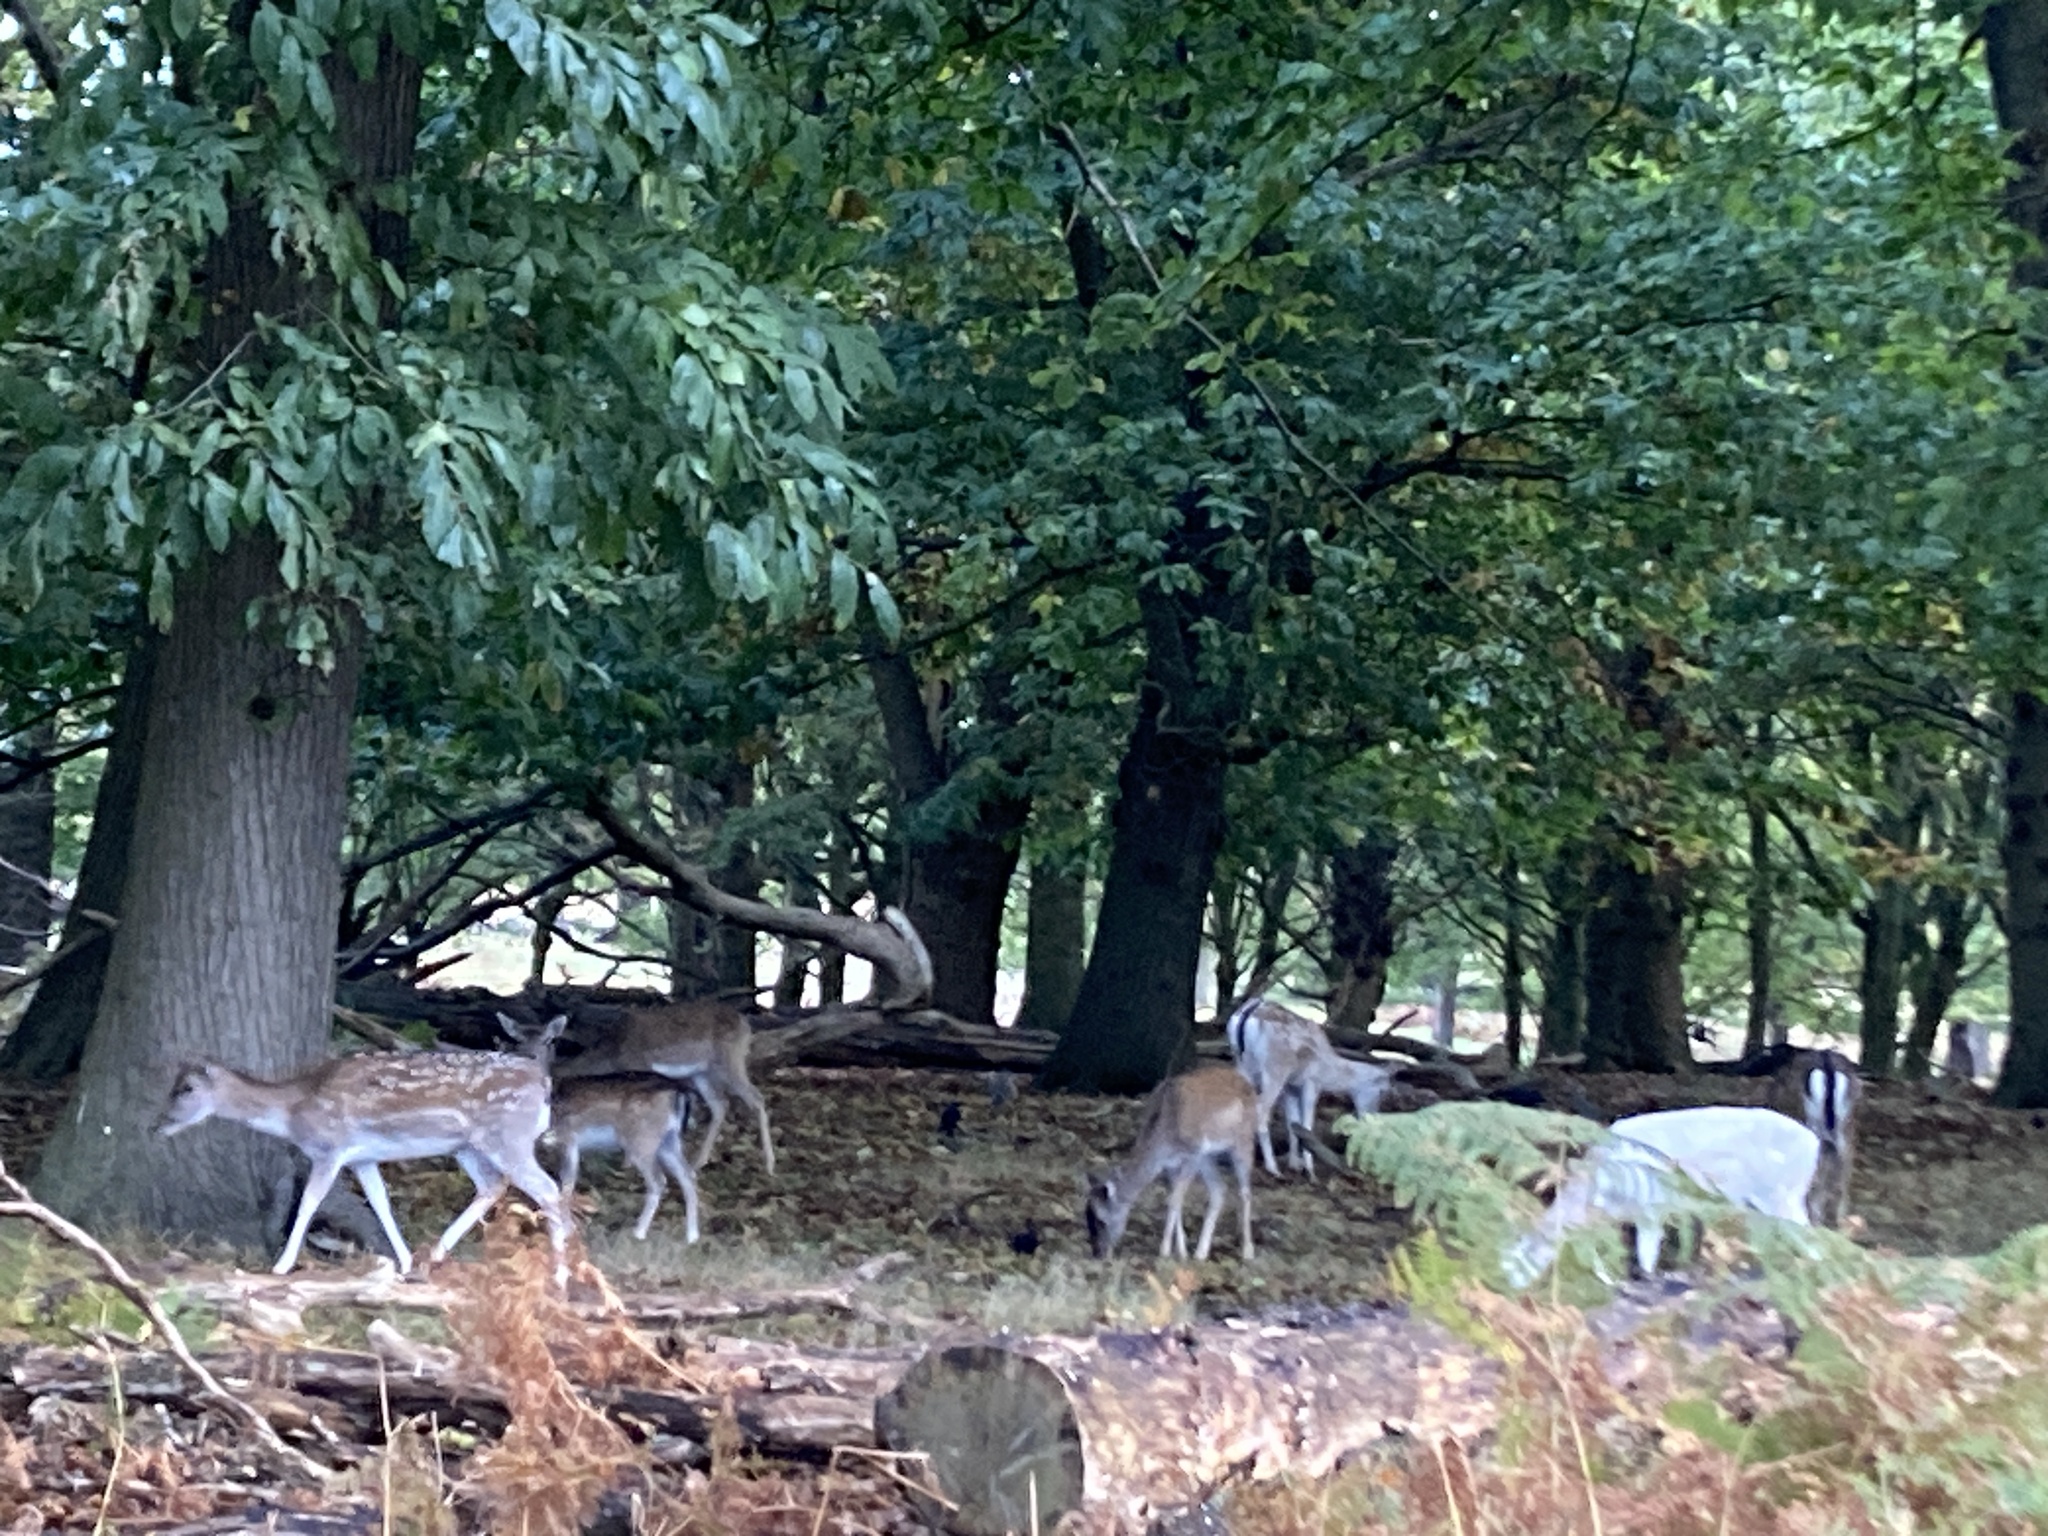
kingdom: Animalia
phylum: Chordata
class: Mammalia
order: Artiodactyla
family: Cervidae
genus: Dama
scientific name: Dama dama
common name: Fallow deer
